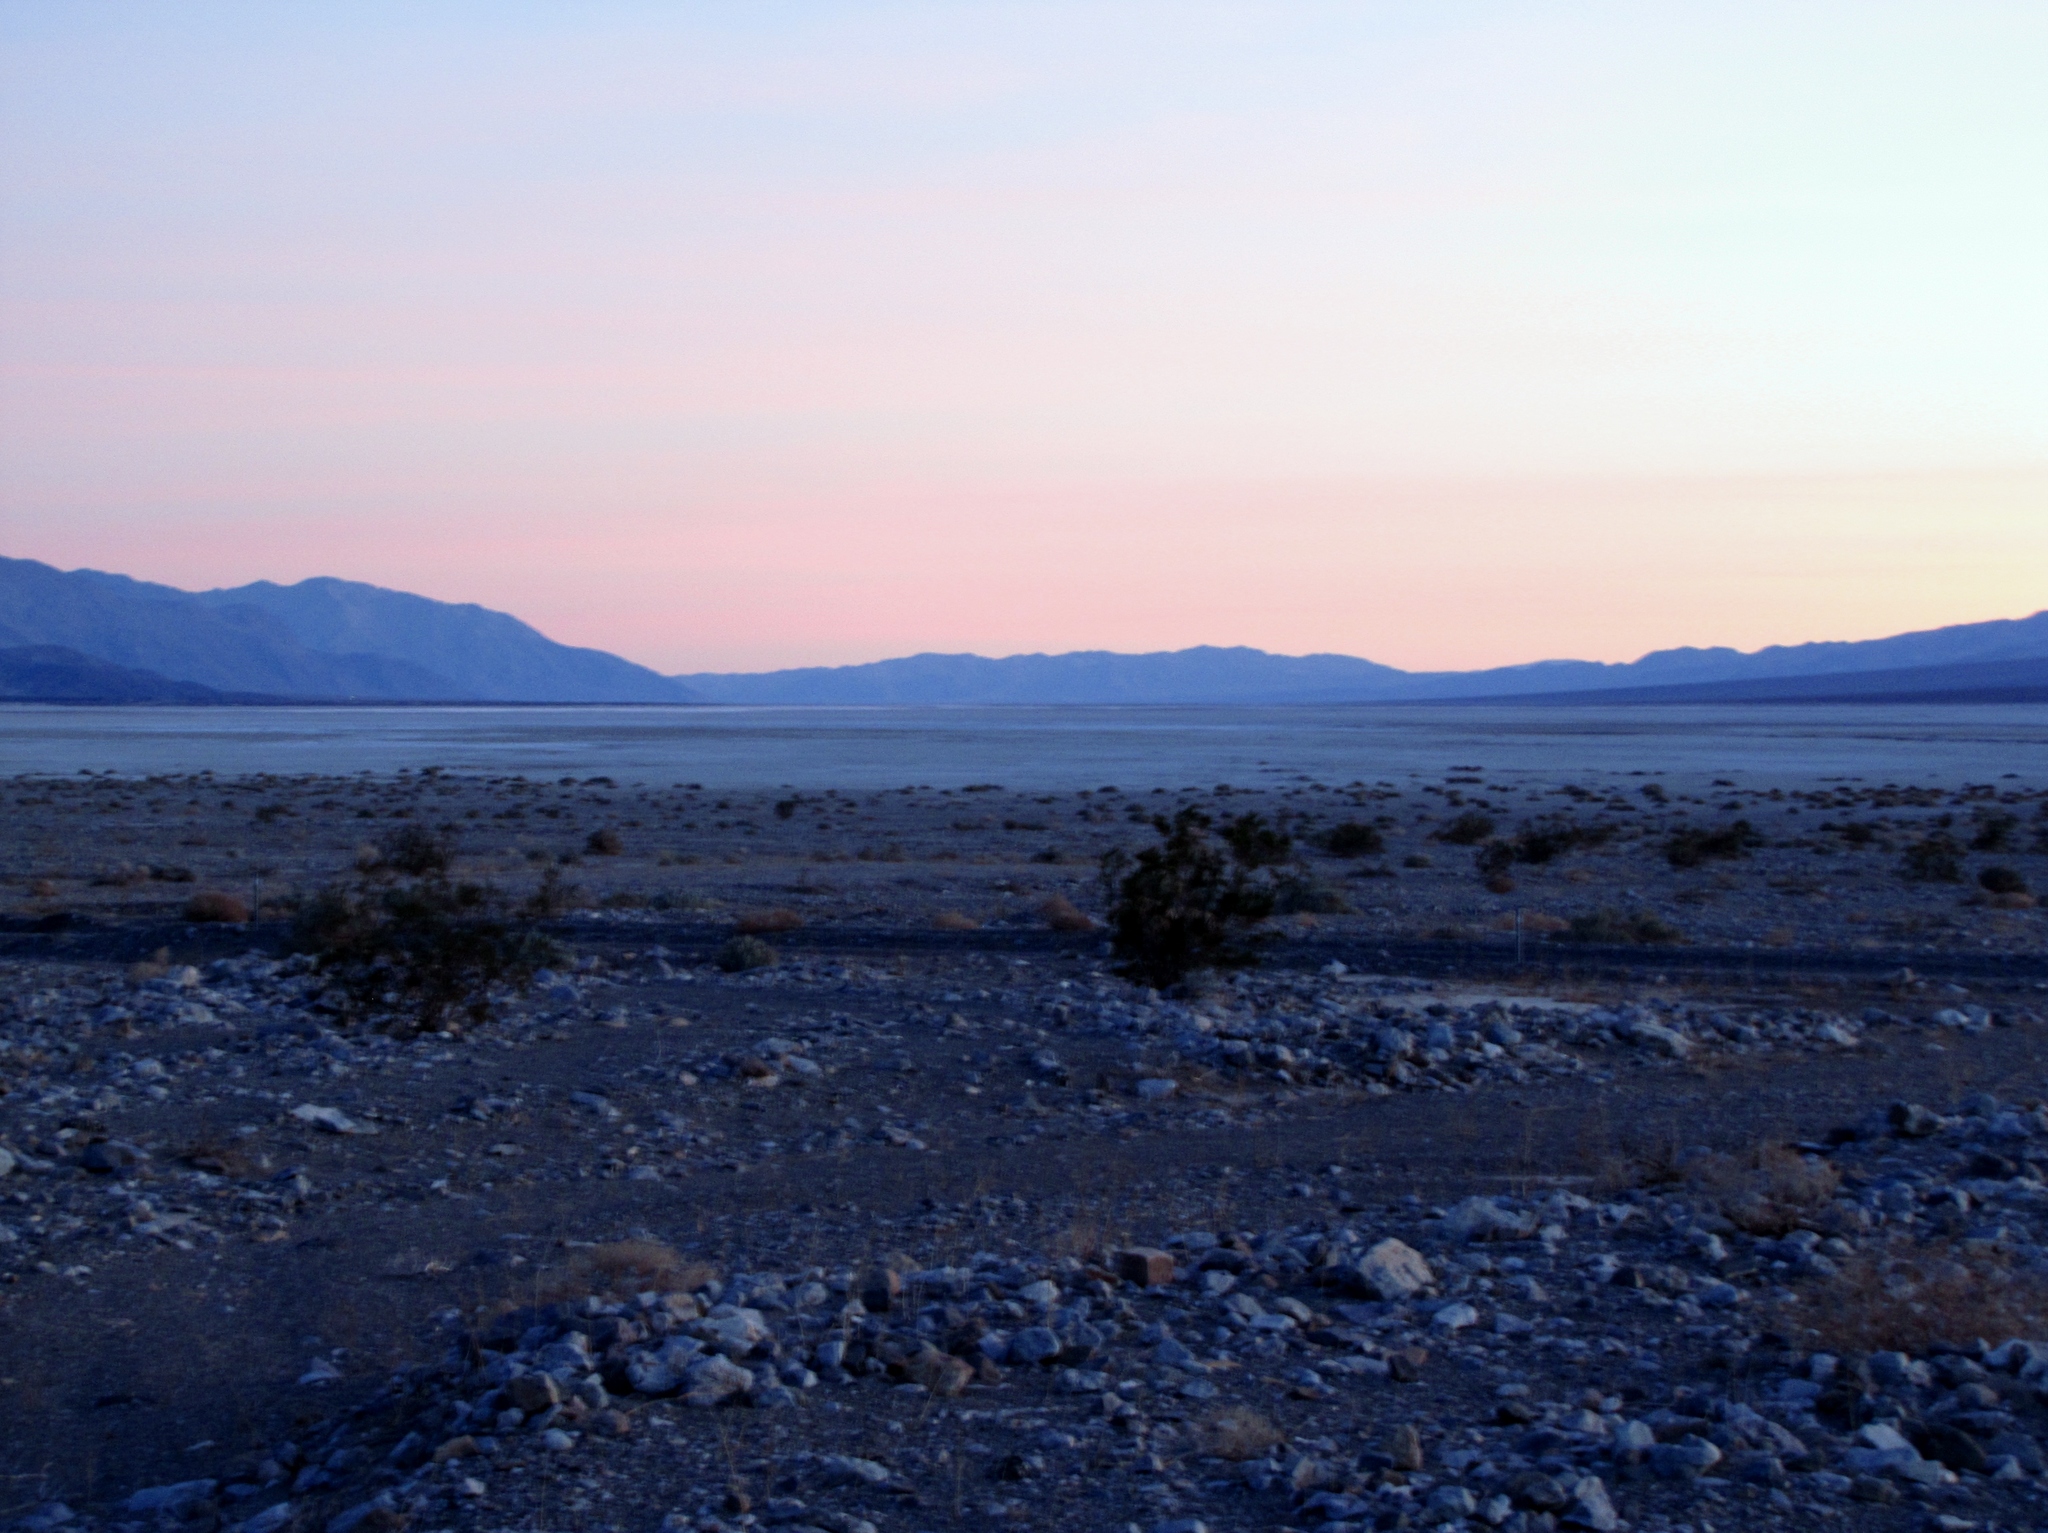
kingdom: Plantae
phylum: Tracheophyta
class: Magnoliopsida
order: Zygophyllales
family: Zygophyllaceae
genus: Larrea
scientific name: Larrea tridentata
